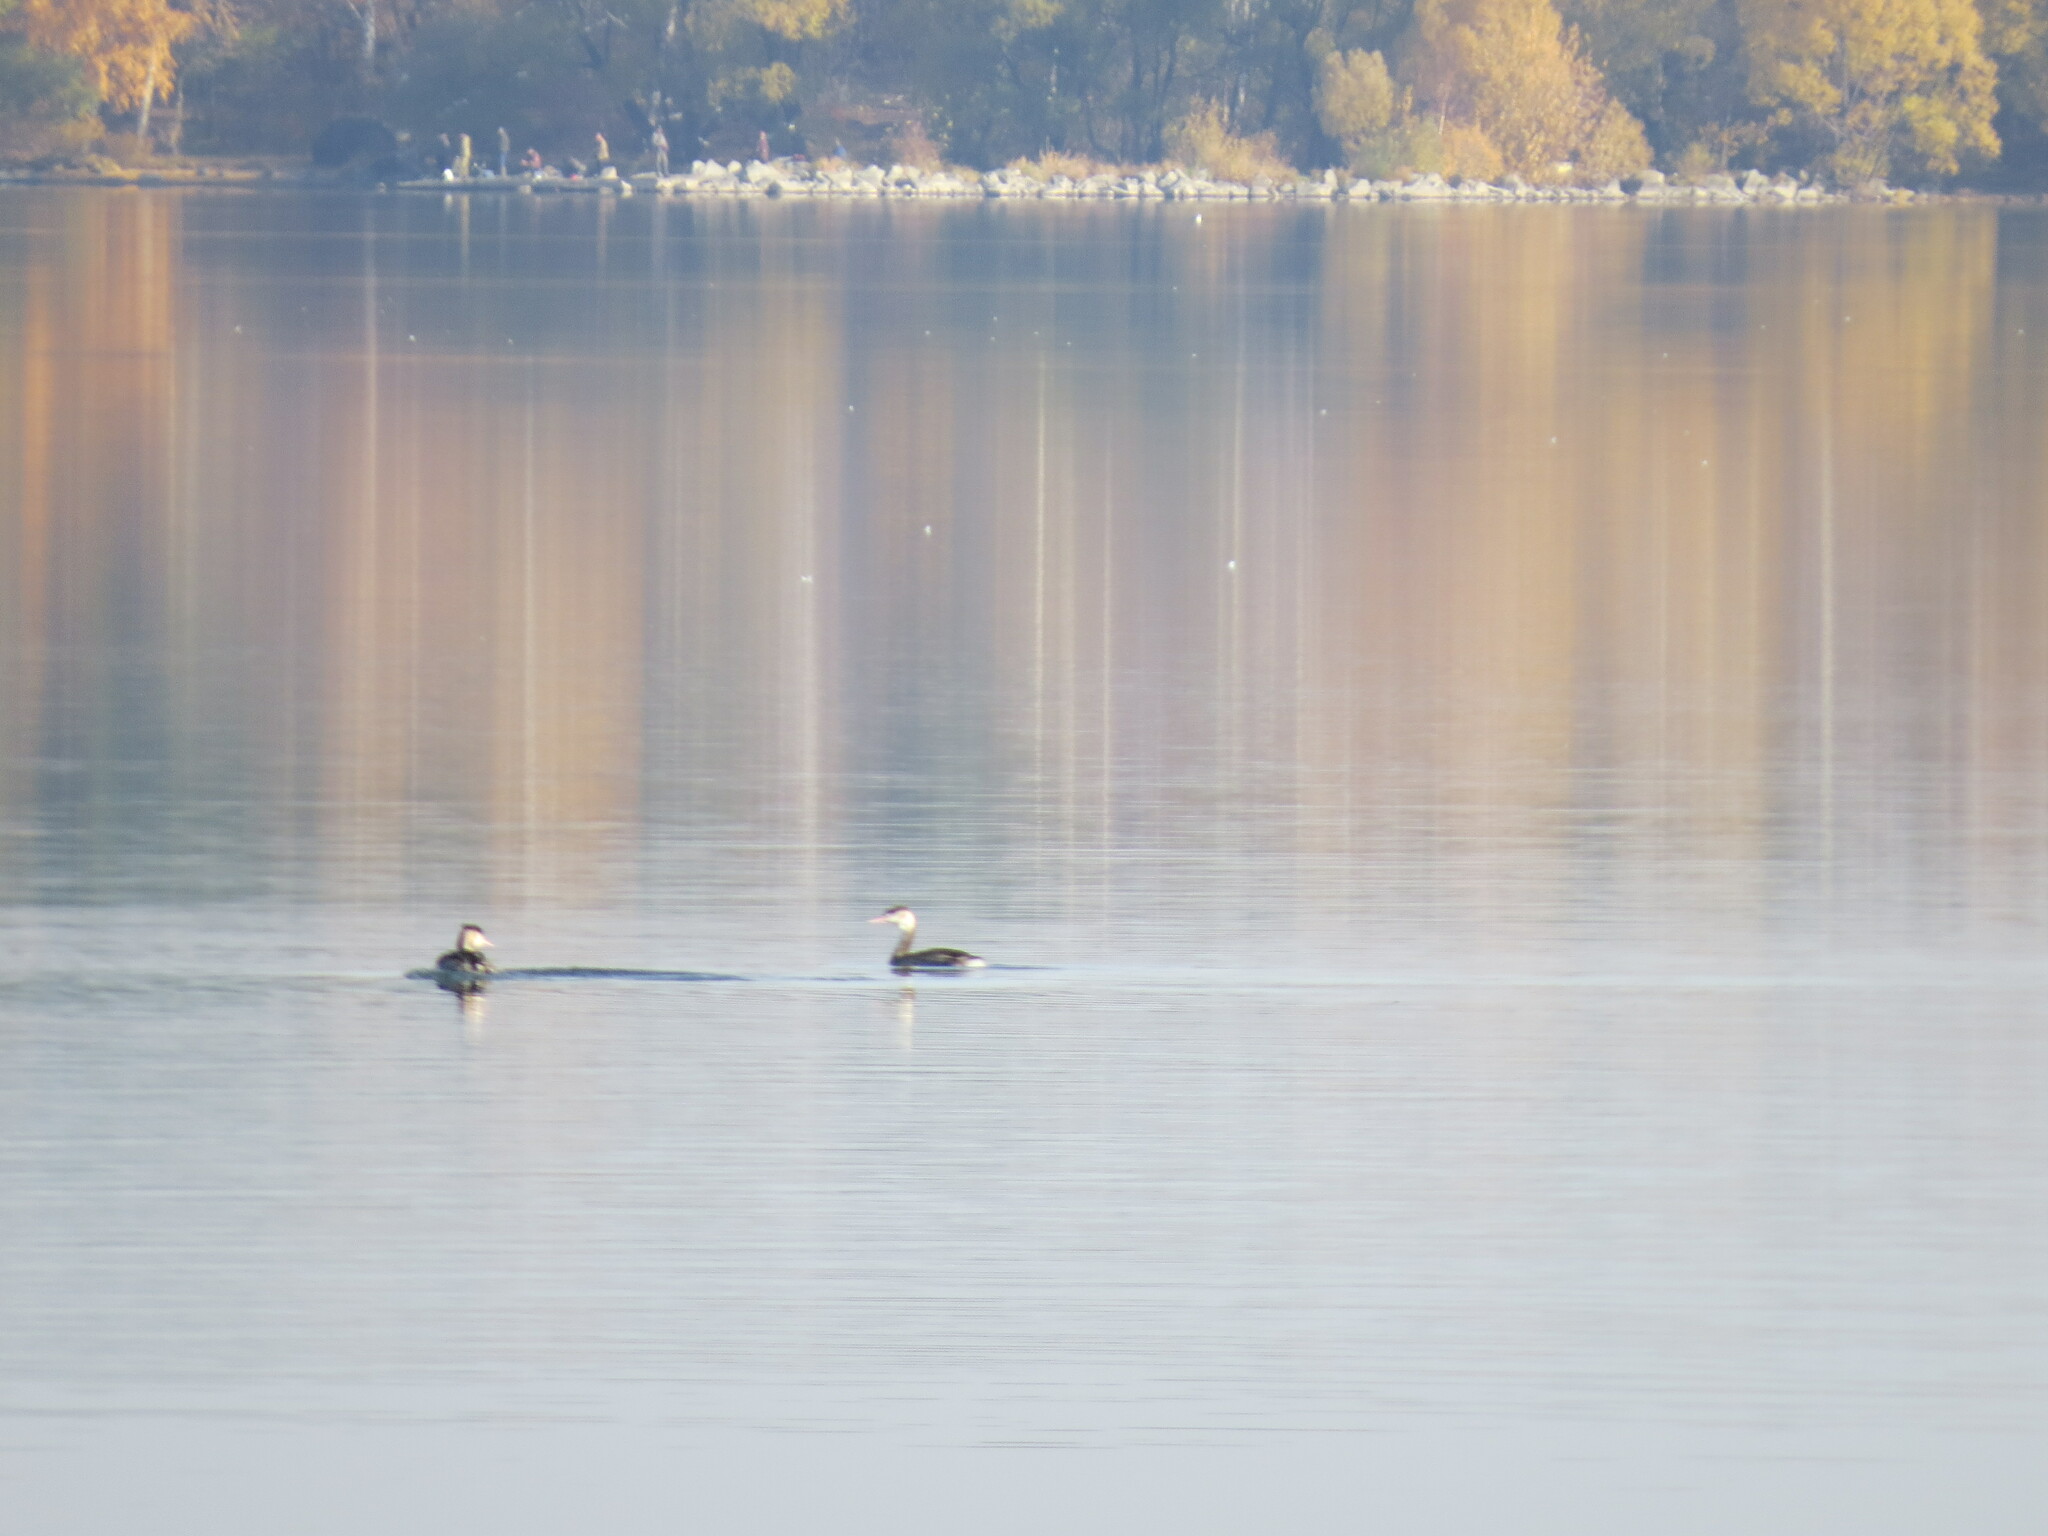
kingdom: Animalia
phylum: Chordata
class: Aves
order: Podicipediformes
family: Podicipedidae
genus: Podiceps
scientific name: Podiceps cristatus
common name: Great crested grebe
